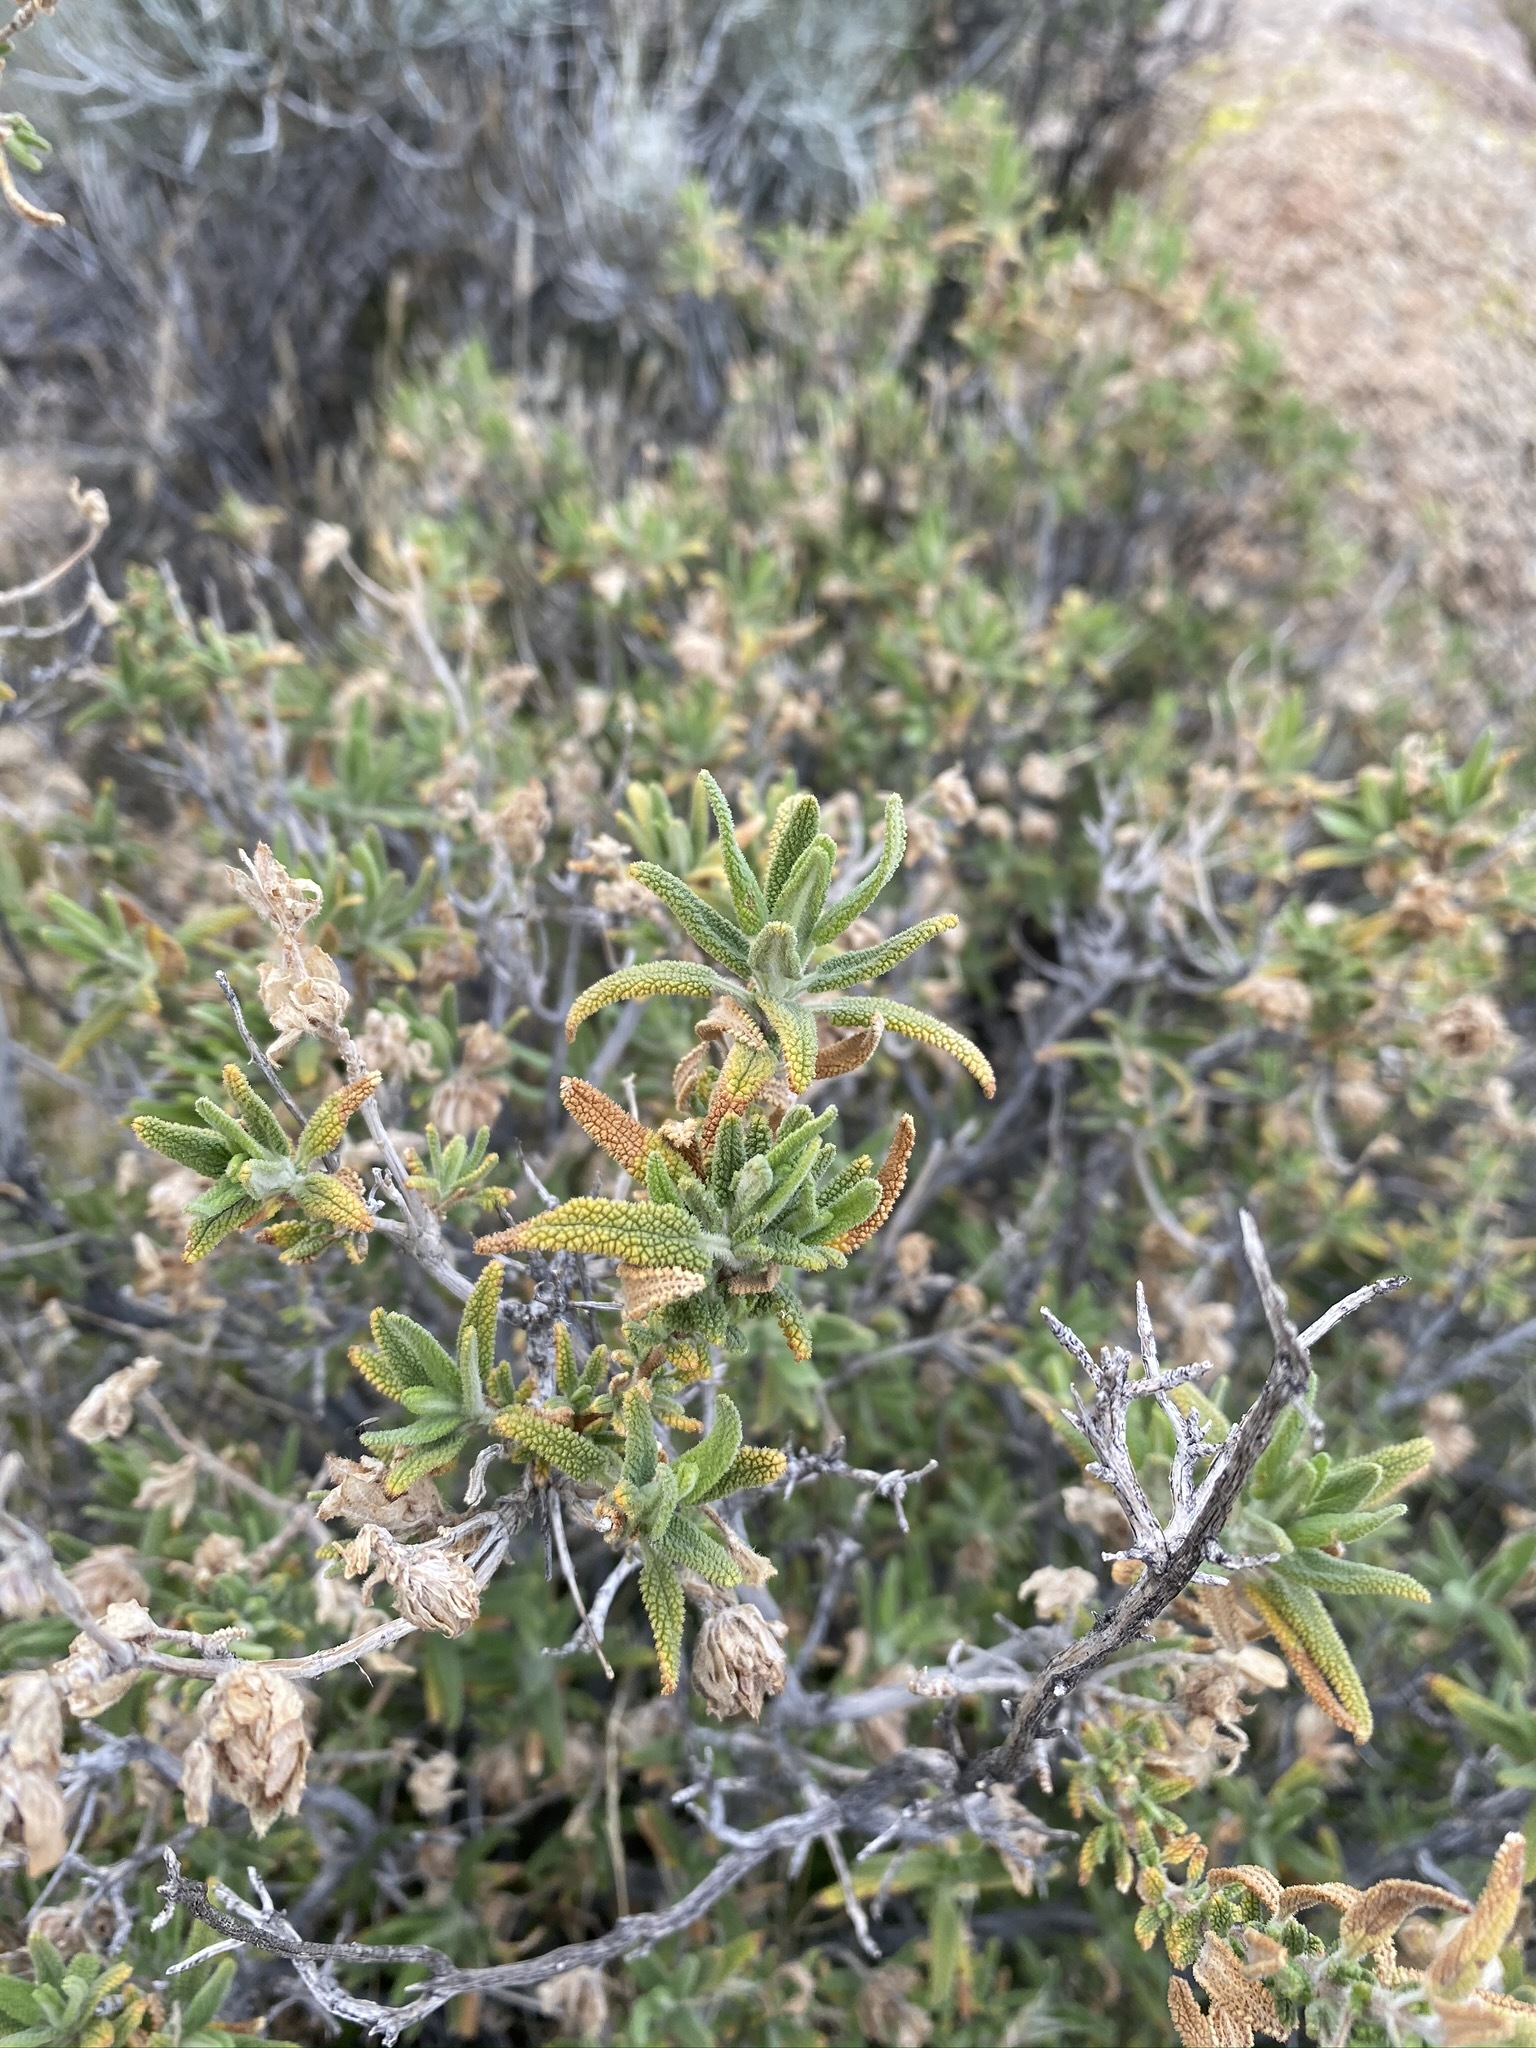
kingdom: Plantae
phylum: Tracheophyta
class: Magnoliopsida
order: Lamiales
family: Lamiaceae
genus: Salvia
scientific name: Salvia eremostachya
